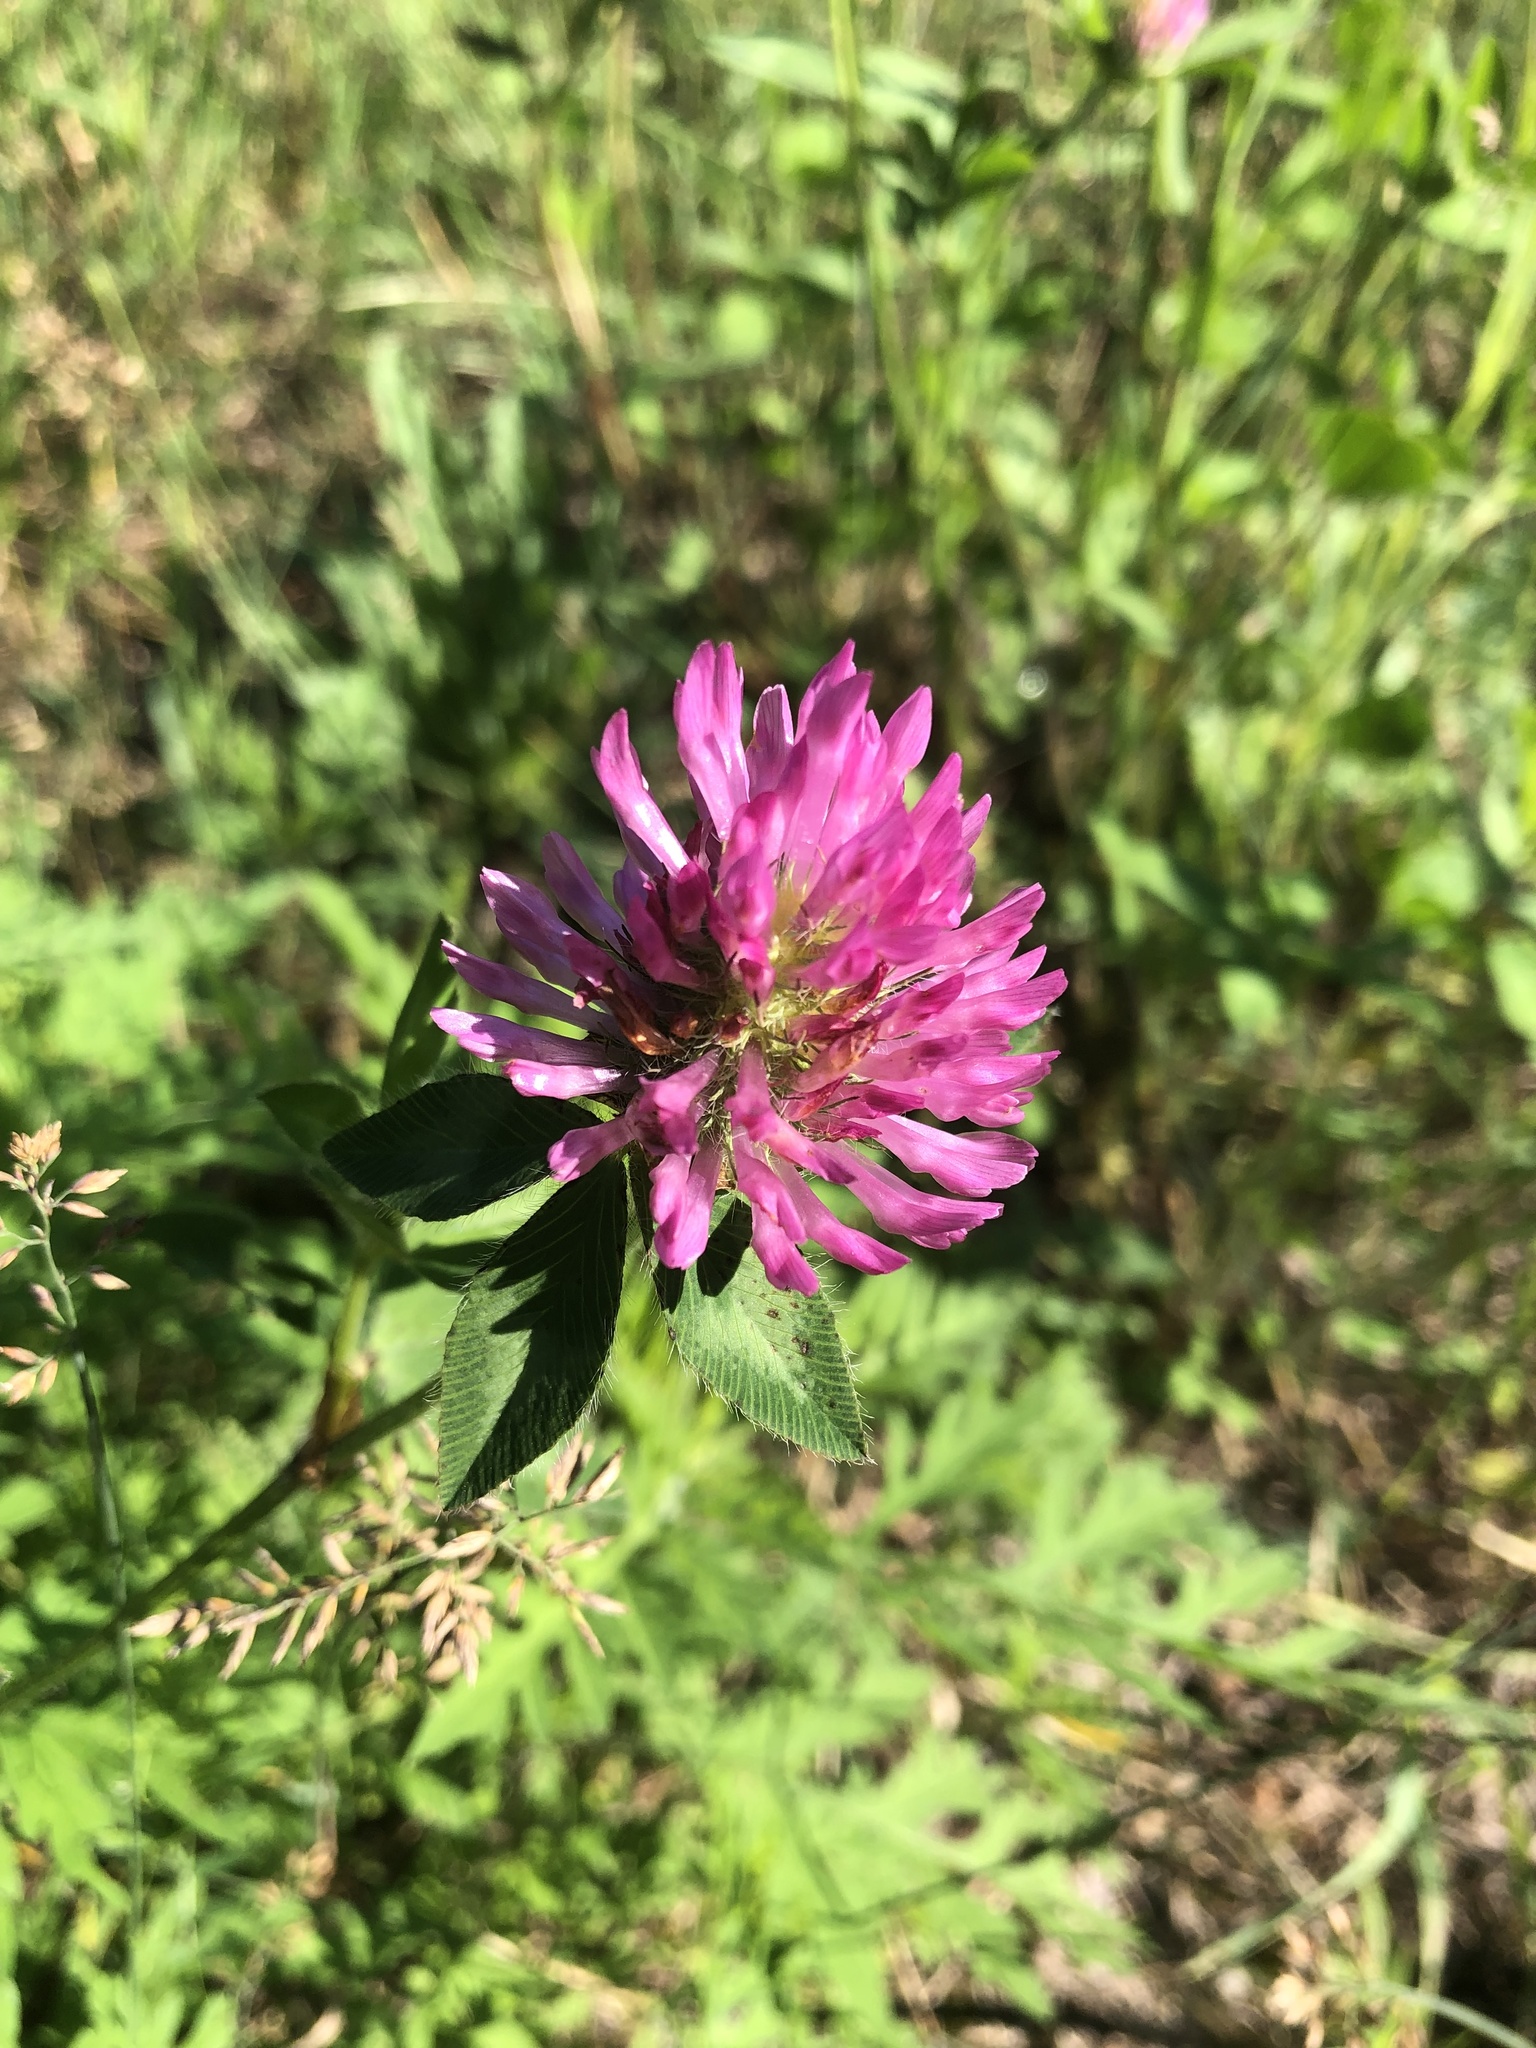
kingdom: Plantae
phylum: Tracheophyta
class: Magnoliopsida
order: Fabales
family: Fabaceae
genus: Trifolium
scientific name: Trifolium pratense
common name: Red clover
